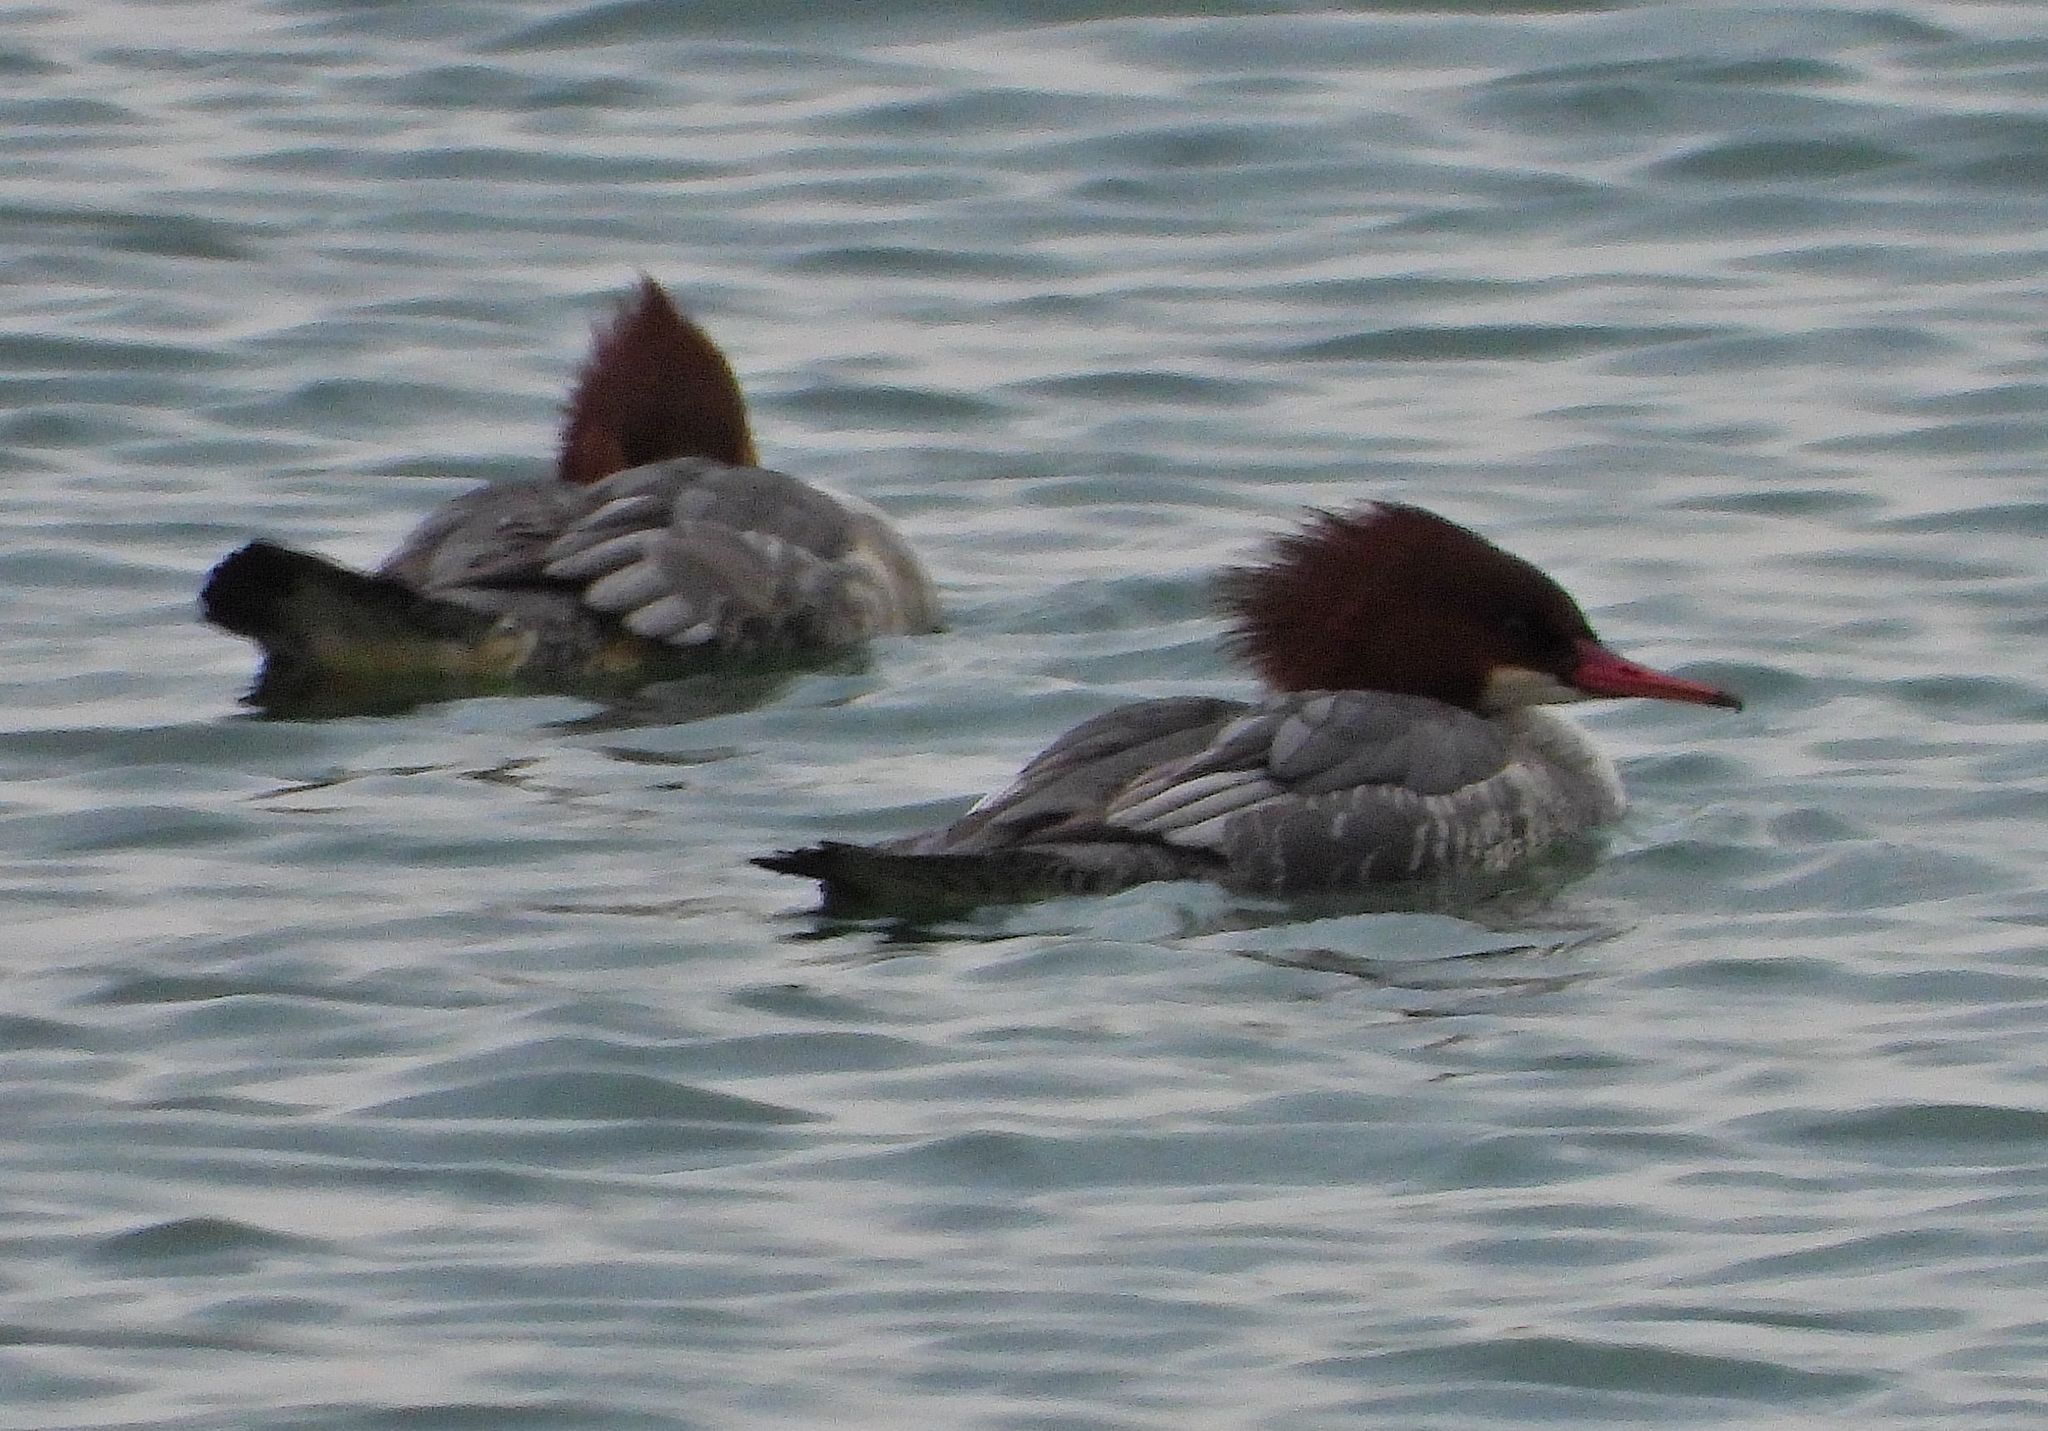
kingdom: Animalia
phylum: Chordata
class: Aves
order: Anseriformes
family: Anatidae
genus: Mergus
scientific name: Mergus merganser
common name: Common merganser
